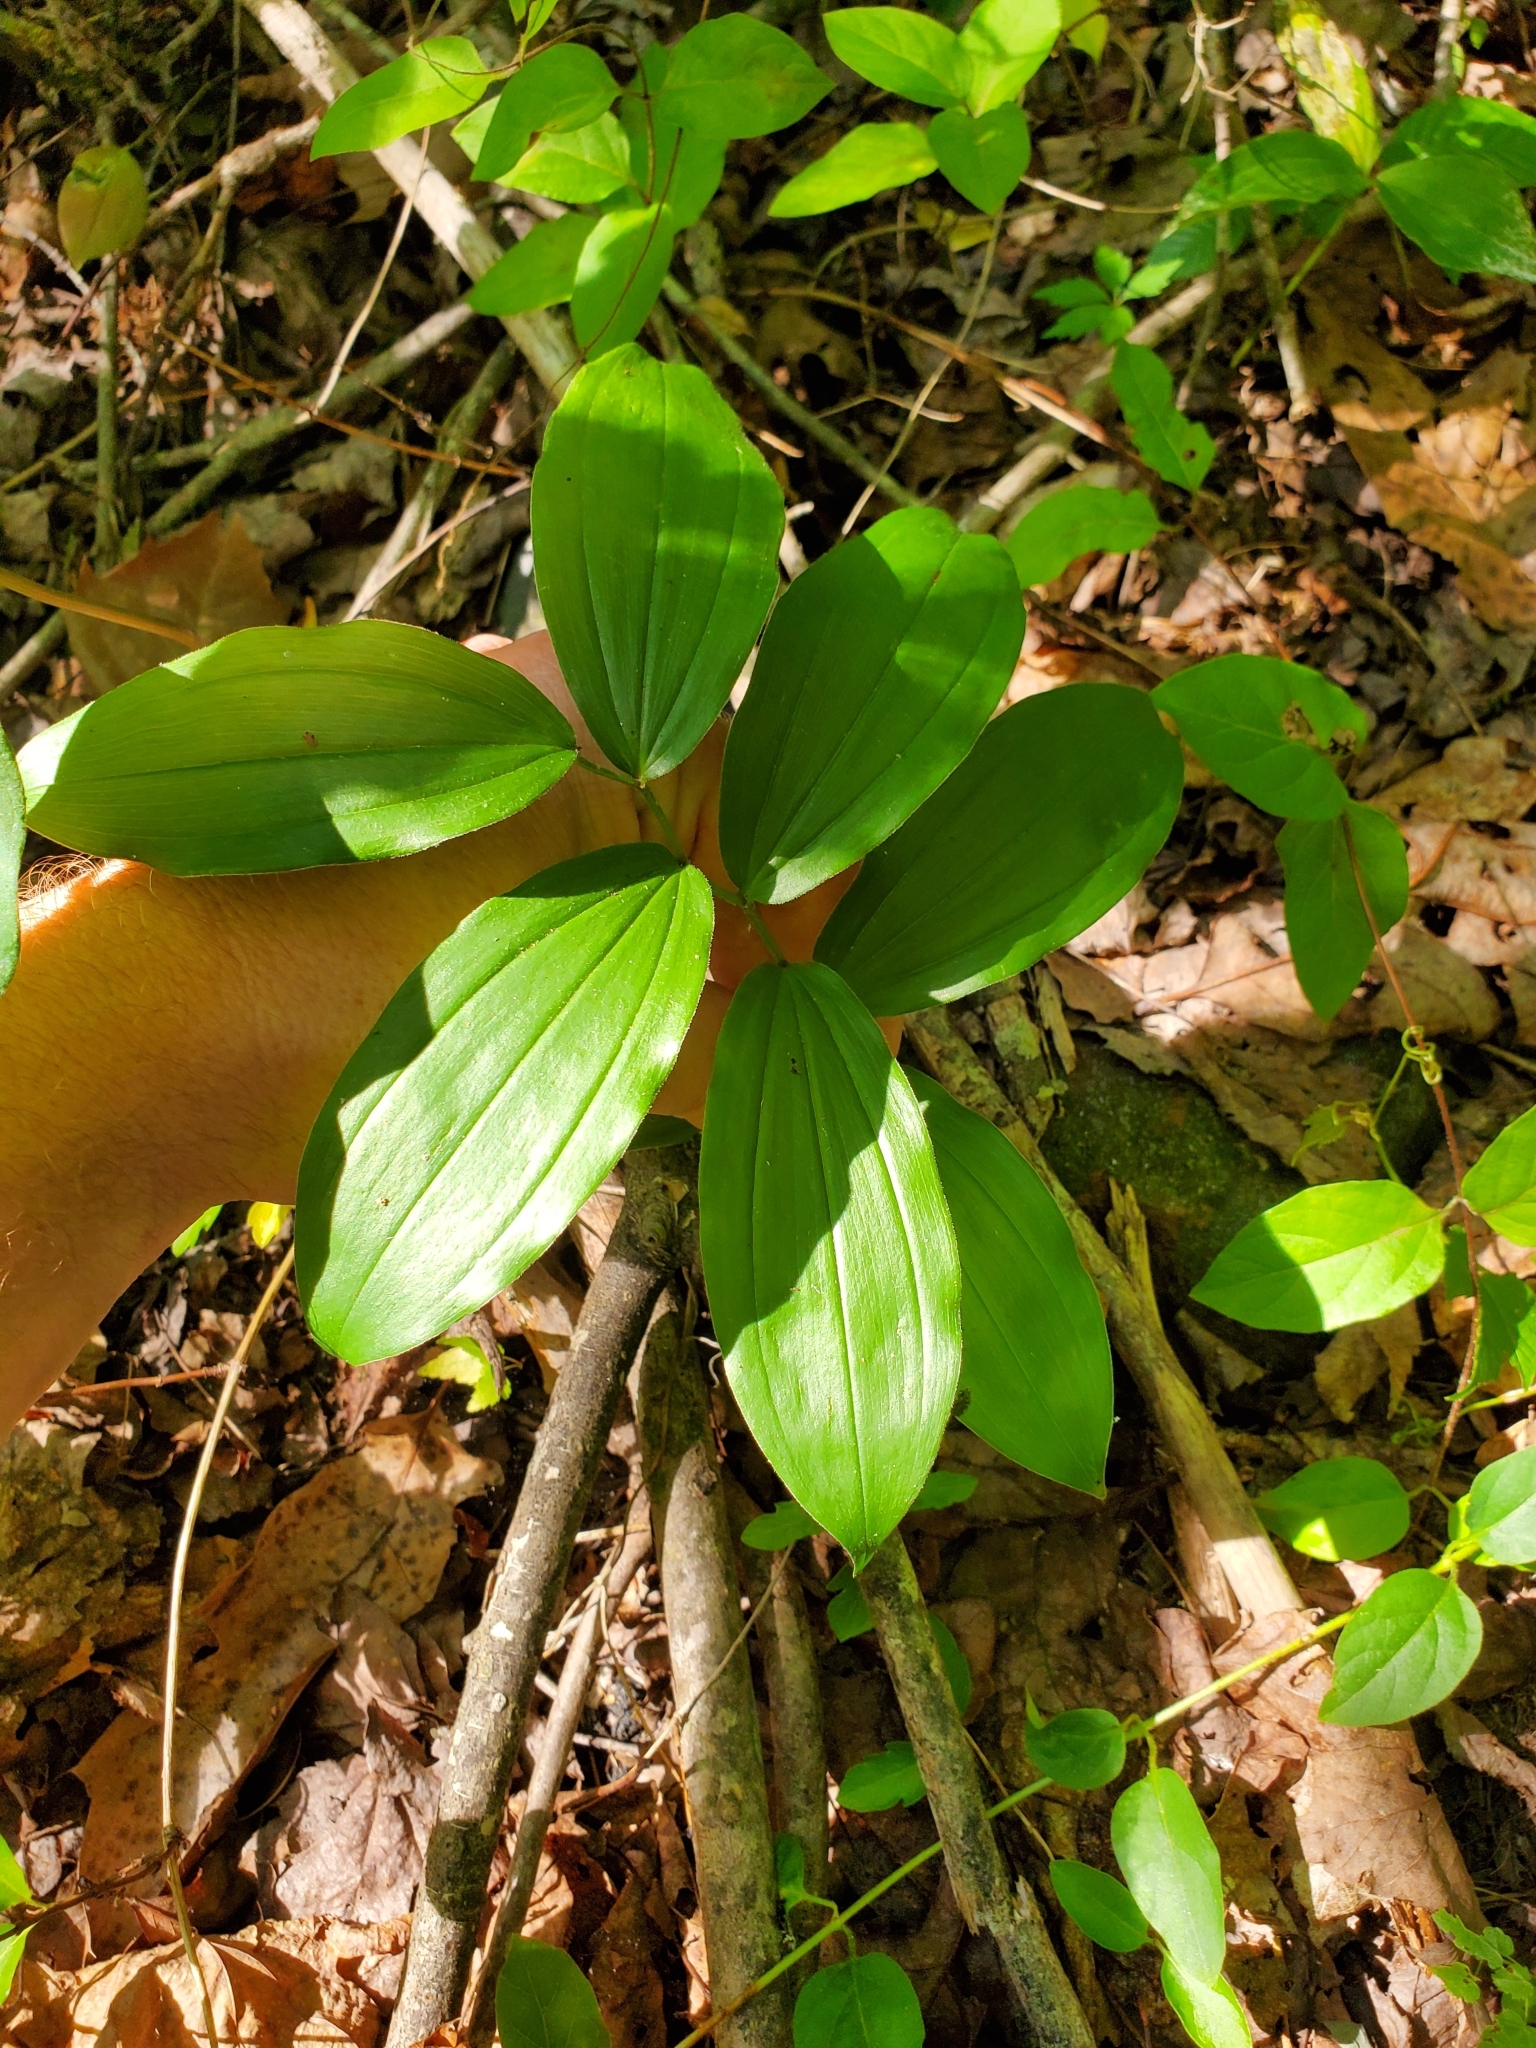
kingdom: Plantae
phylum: Tracheophyta
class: Liliopsida
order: Asparagales
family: Asparagaceae
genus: Maianthemum
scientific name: Maianthemum racemosum
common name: False spikenard
